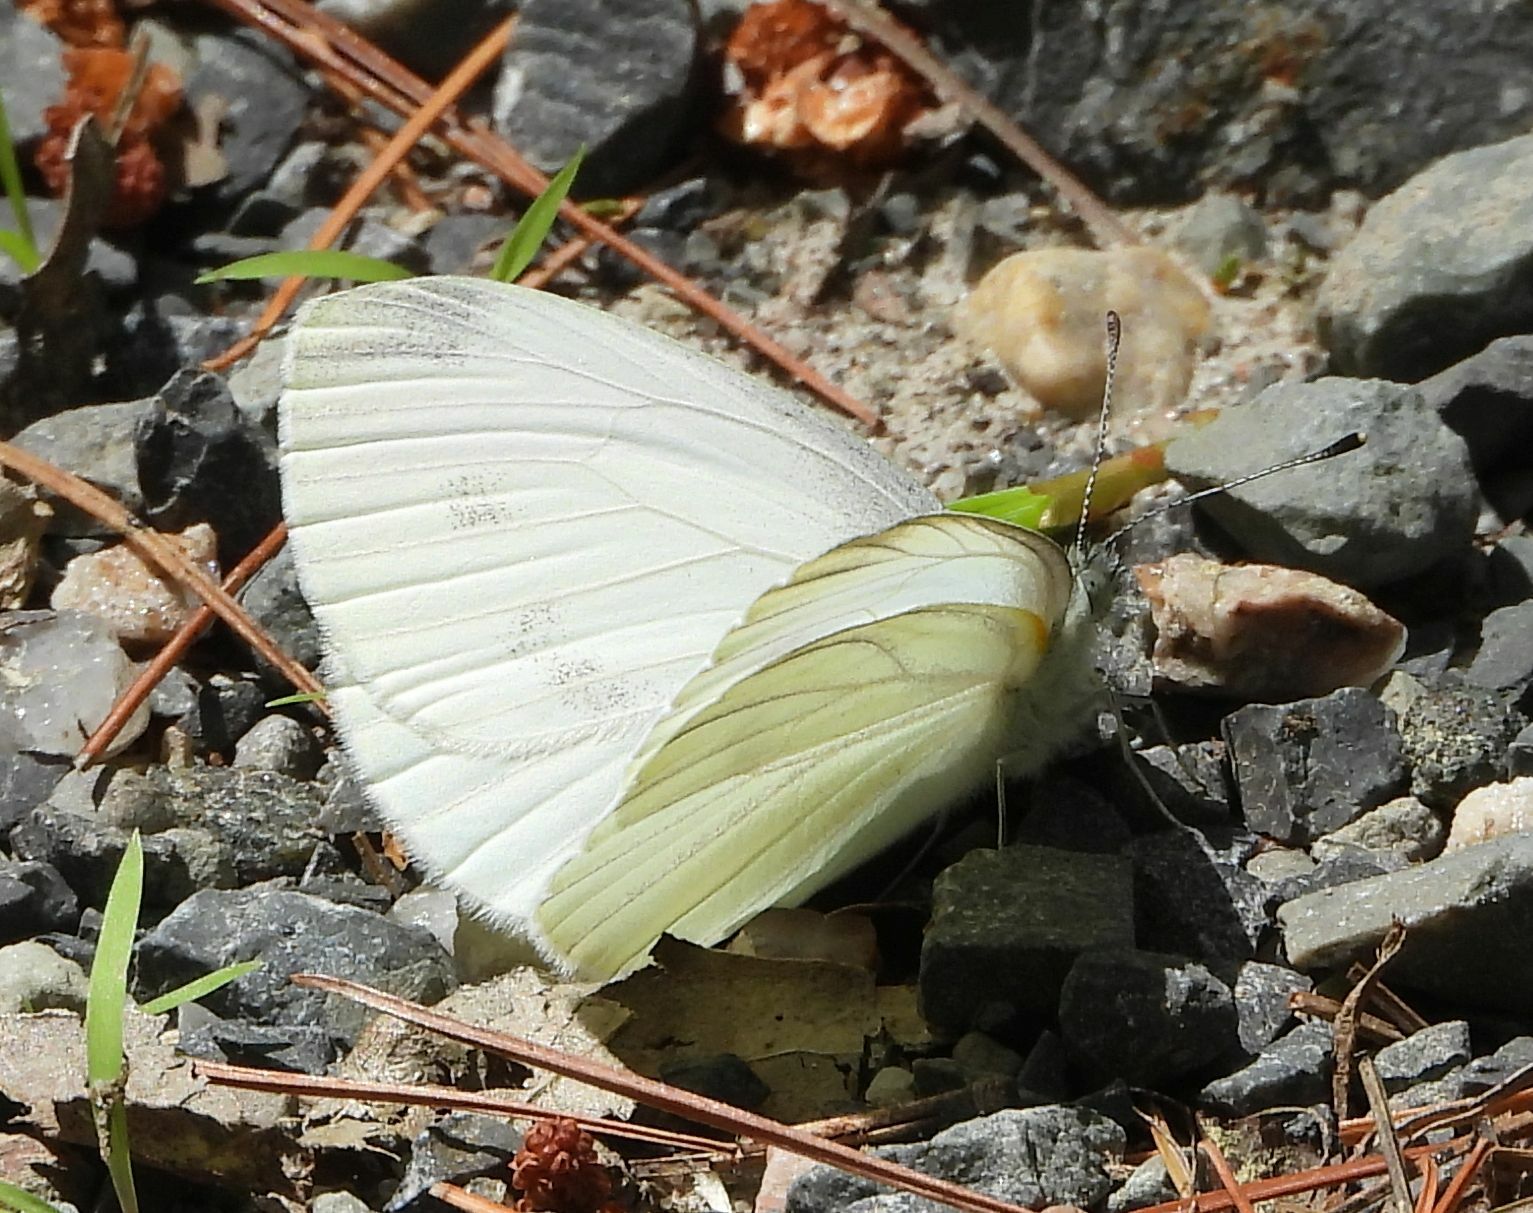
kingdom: Animalia
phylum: Arthropoda
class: Insecta
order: Lepidoptera
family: Pieridae
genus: Pieris
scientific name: Pieris rapae
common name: Small white
